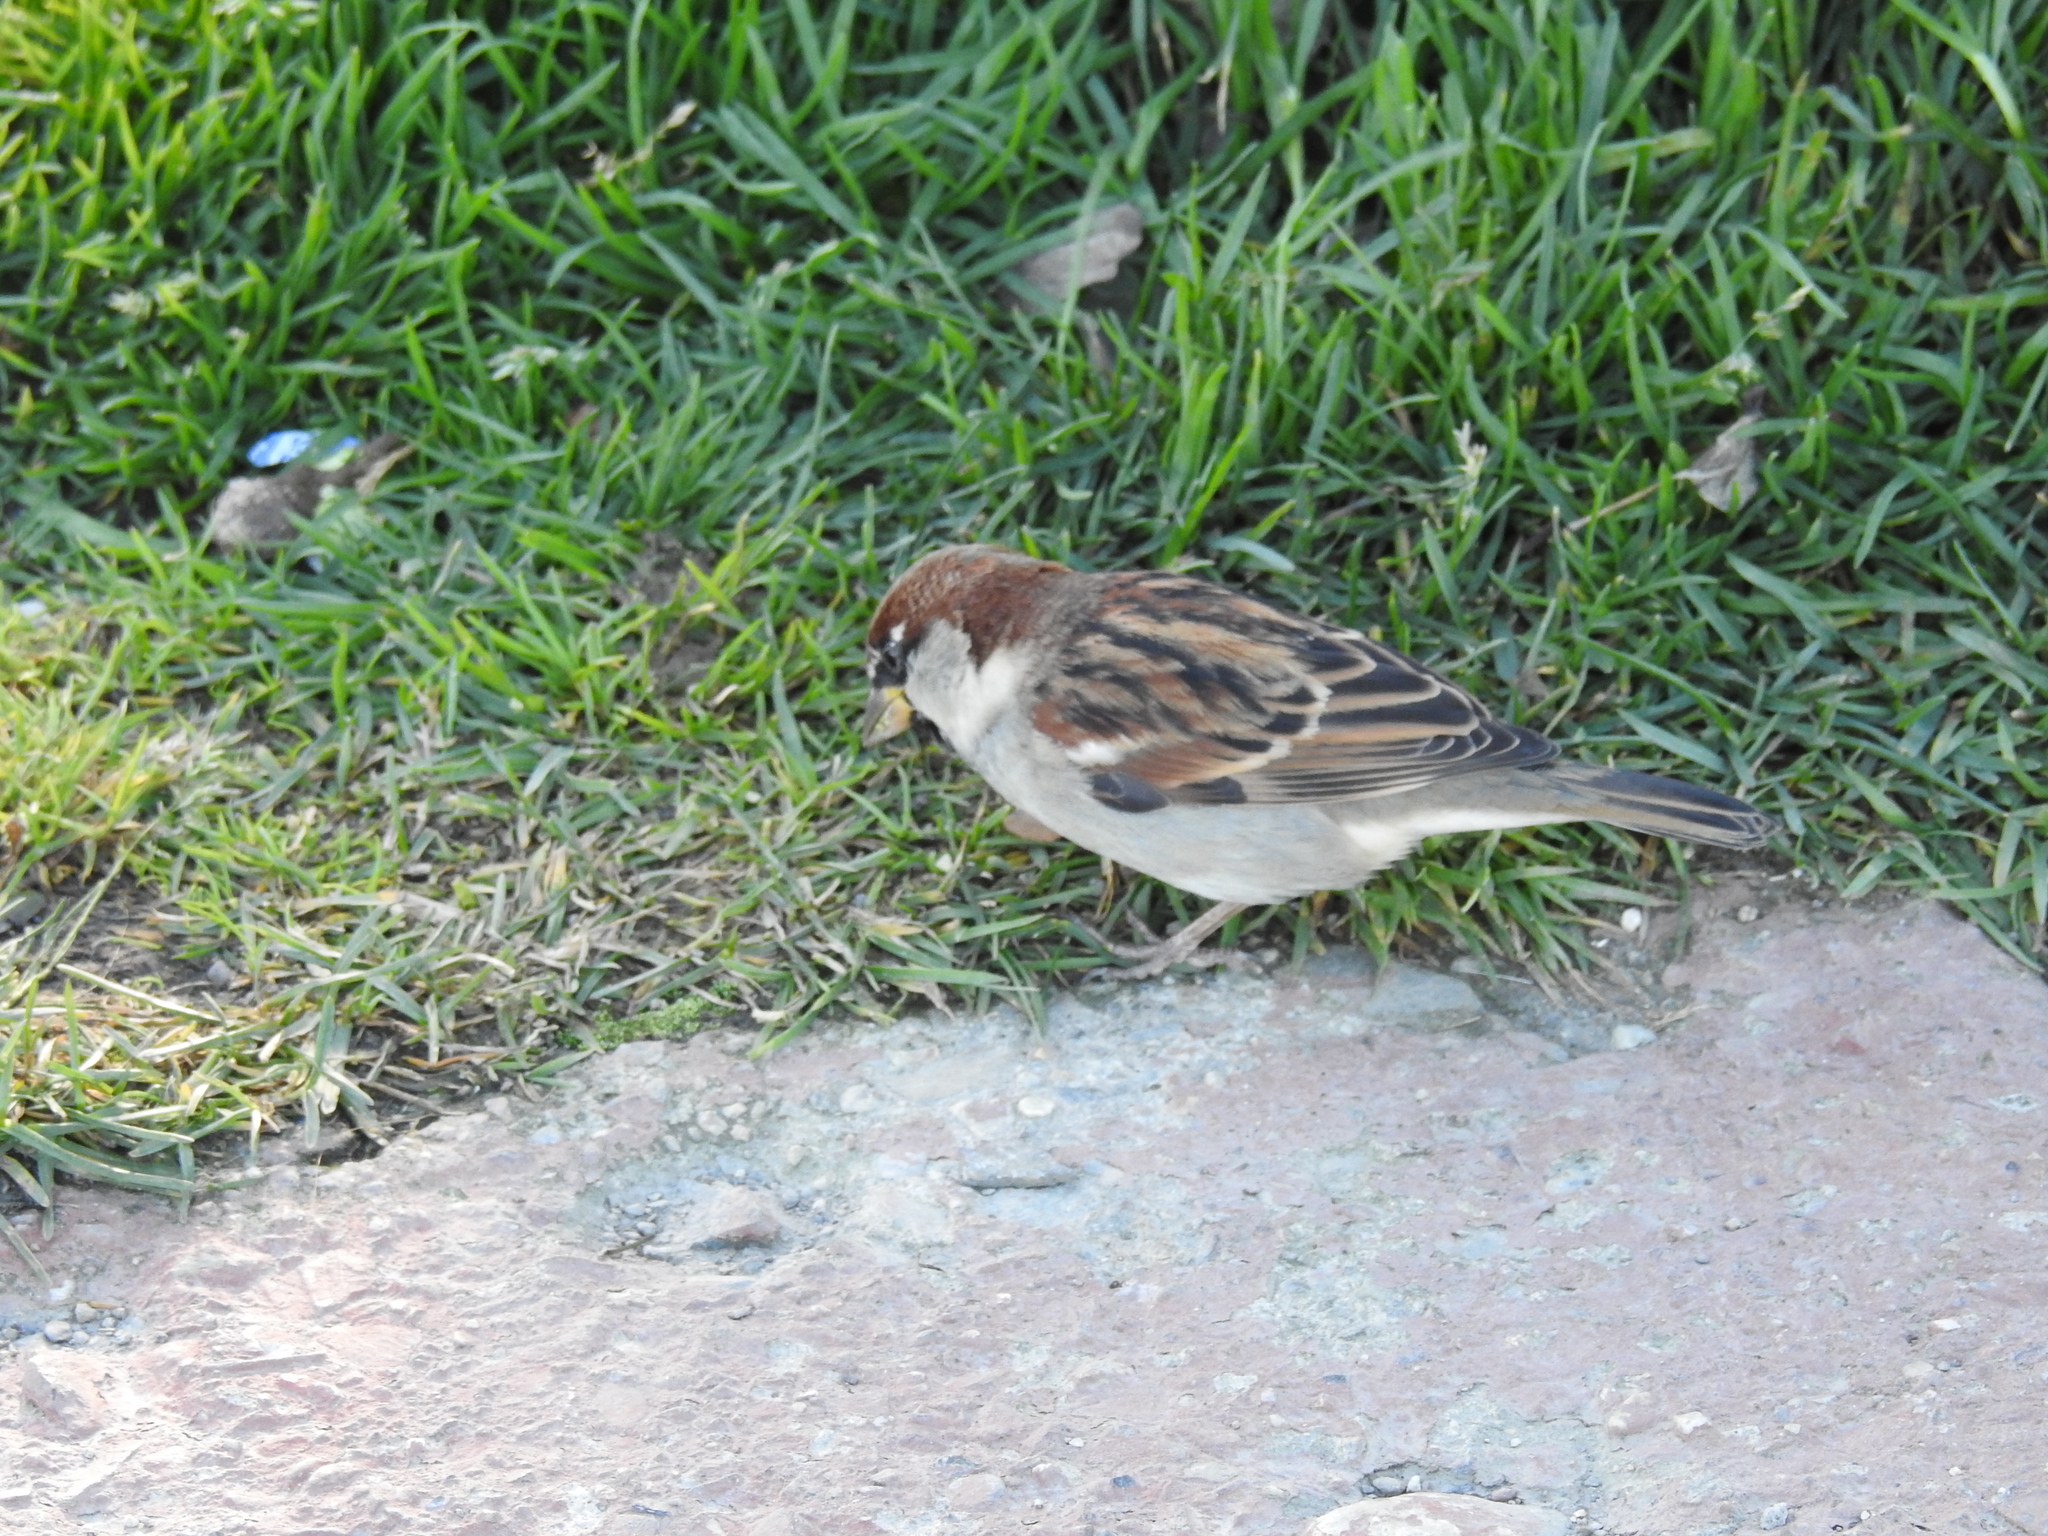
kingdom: Animalia
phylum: Chordata
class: Aves
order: Passeriformes
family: Passeridae
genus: Passer
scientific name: Passer domesticus
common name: House sparrow
